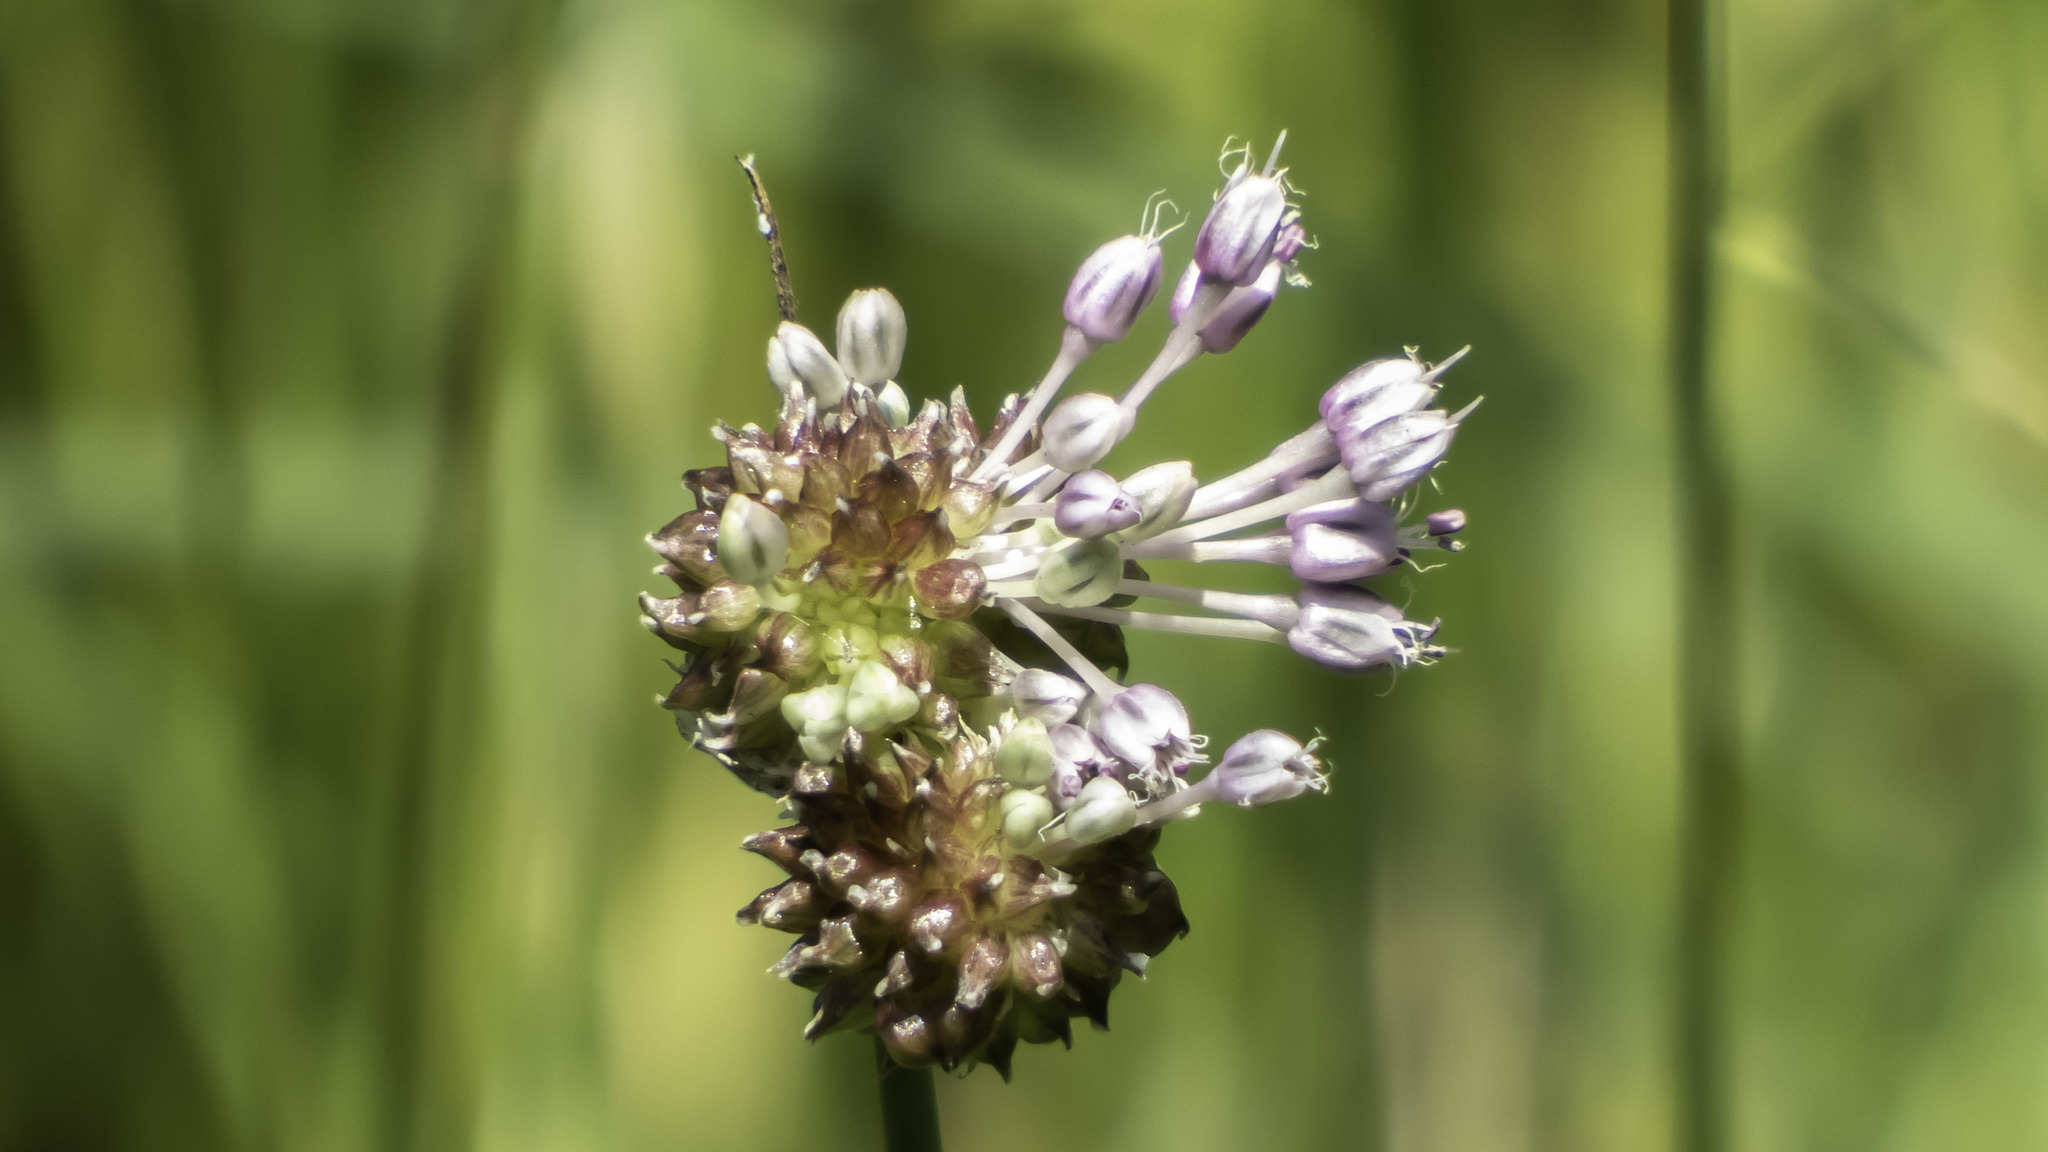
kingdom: Plantae
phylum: Tracheophyta
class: Liliopsida
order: Asparagales
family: Amaryllidaceae
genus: Allium
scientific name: Allium vineale
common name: Crow garlic
